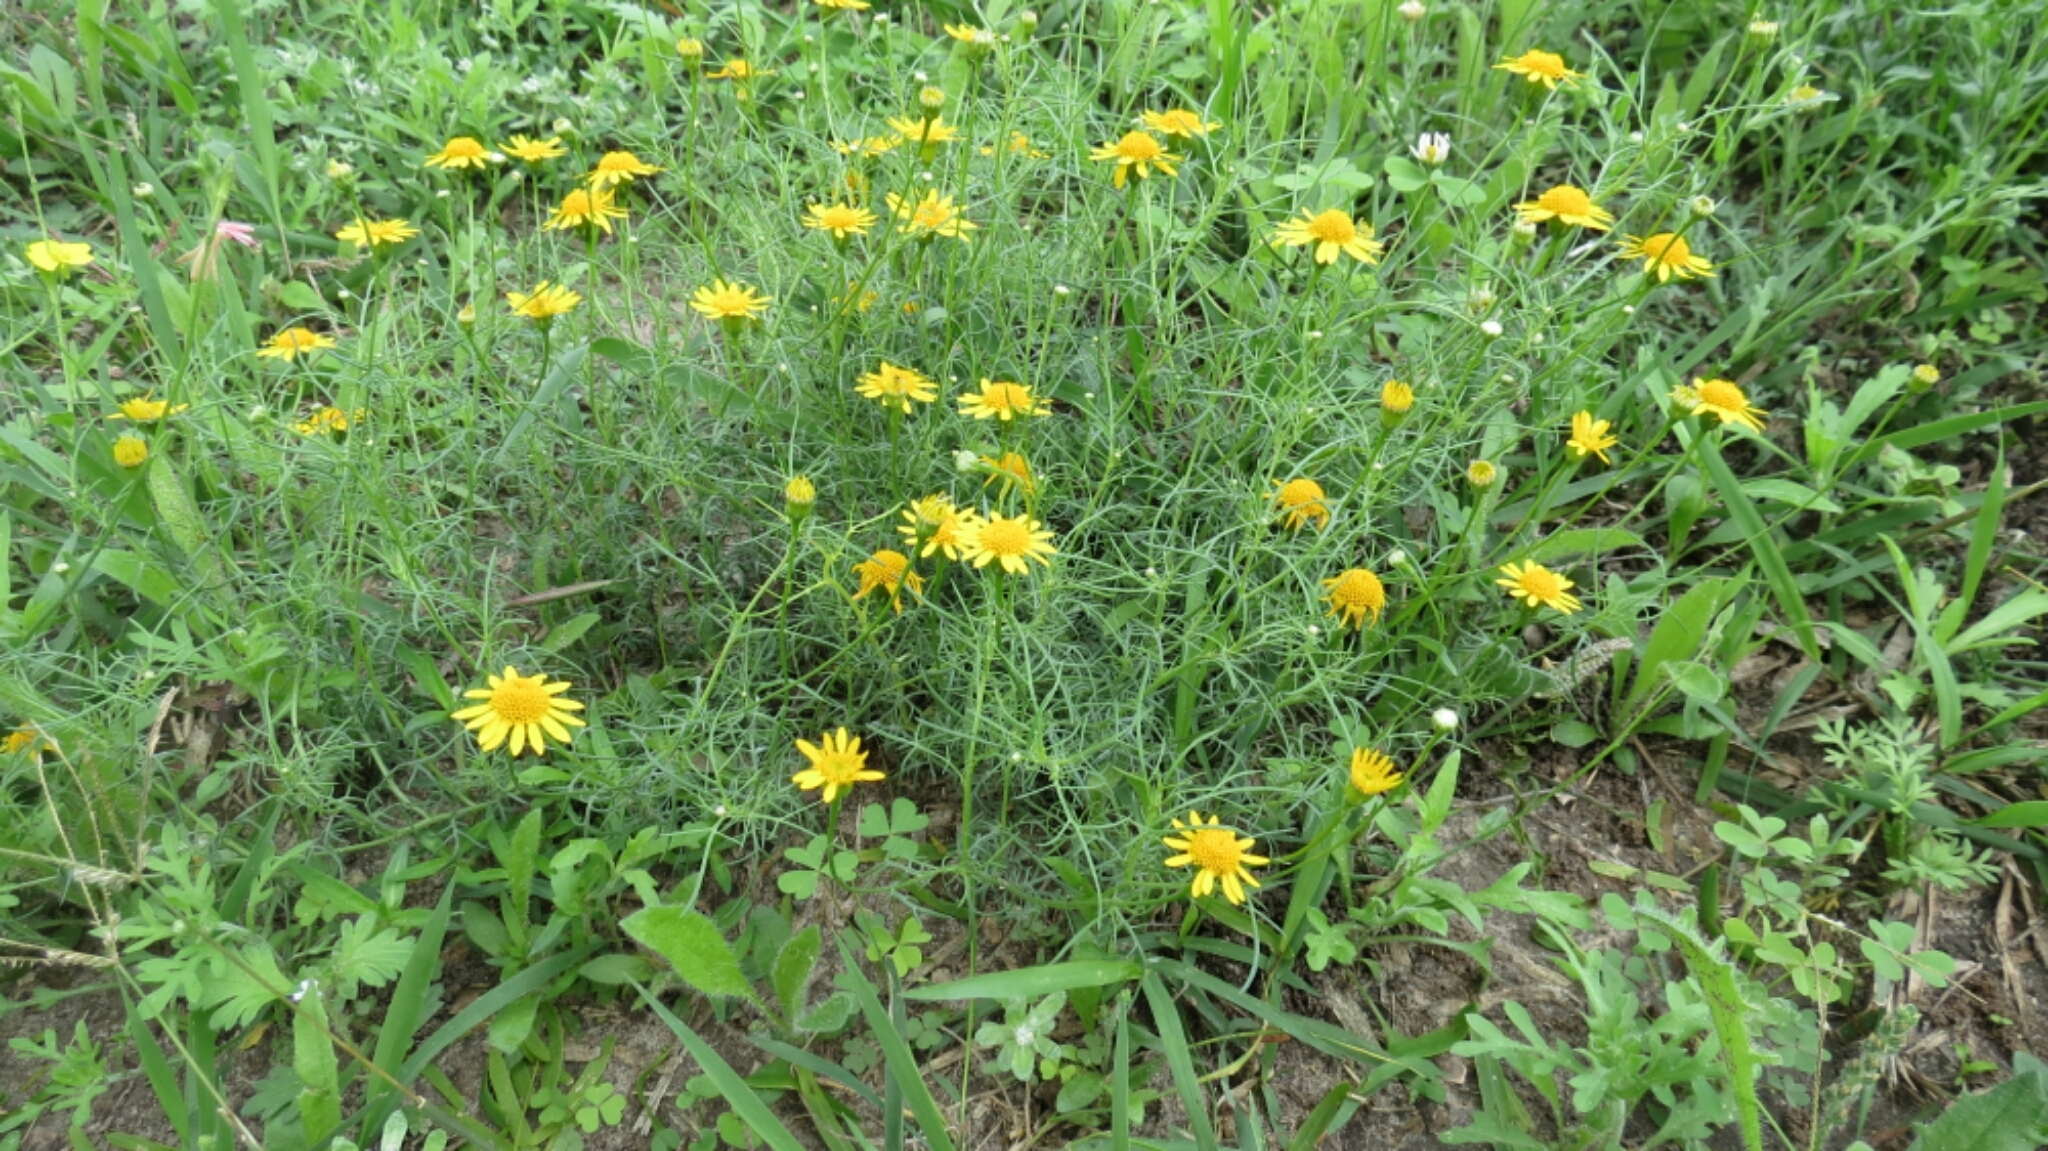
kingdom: Plantae
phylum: Tracheophyta
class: Magnoliopsida
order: Asterales
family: Asteraceae
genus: Thymophylla
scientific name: Thymophylla tenuiloba
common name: Dahlberg's daisy
